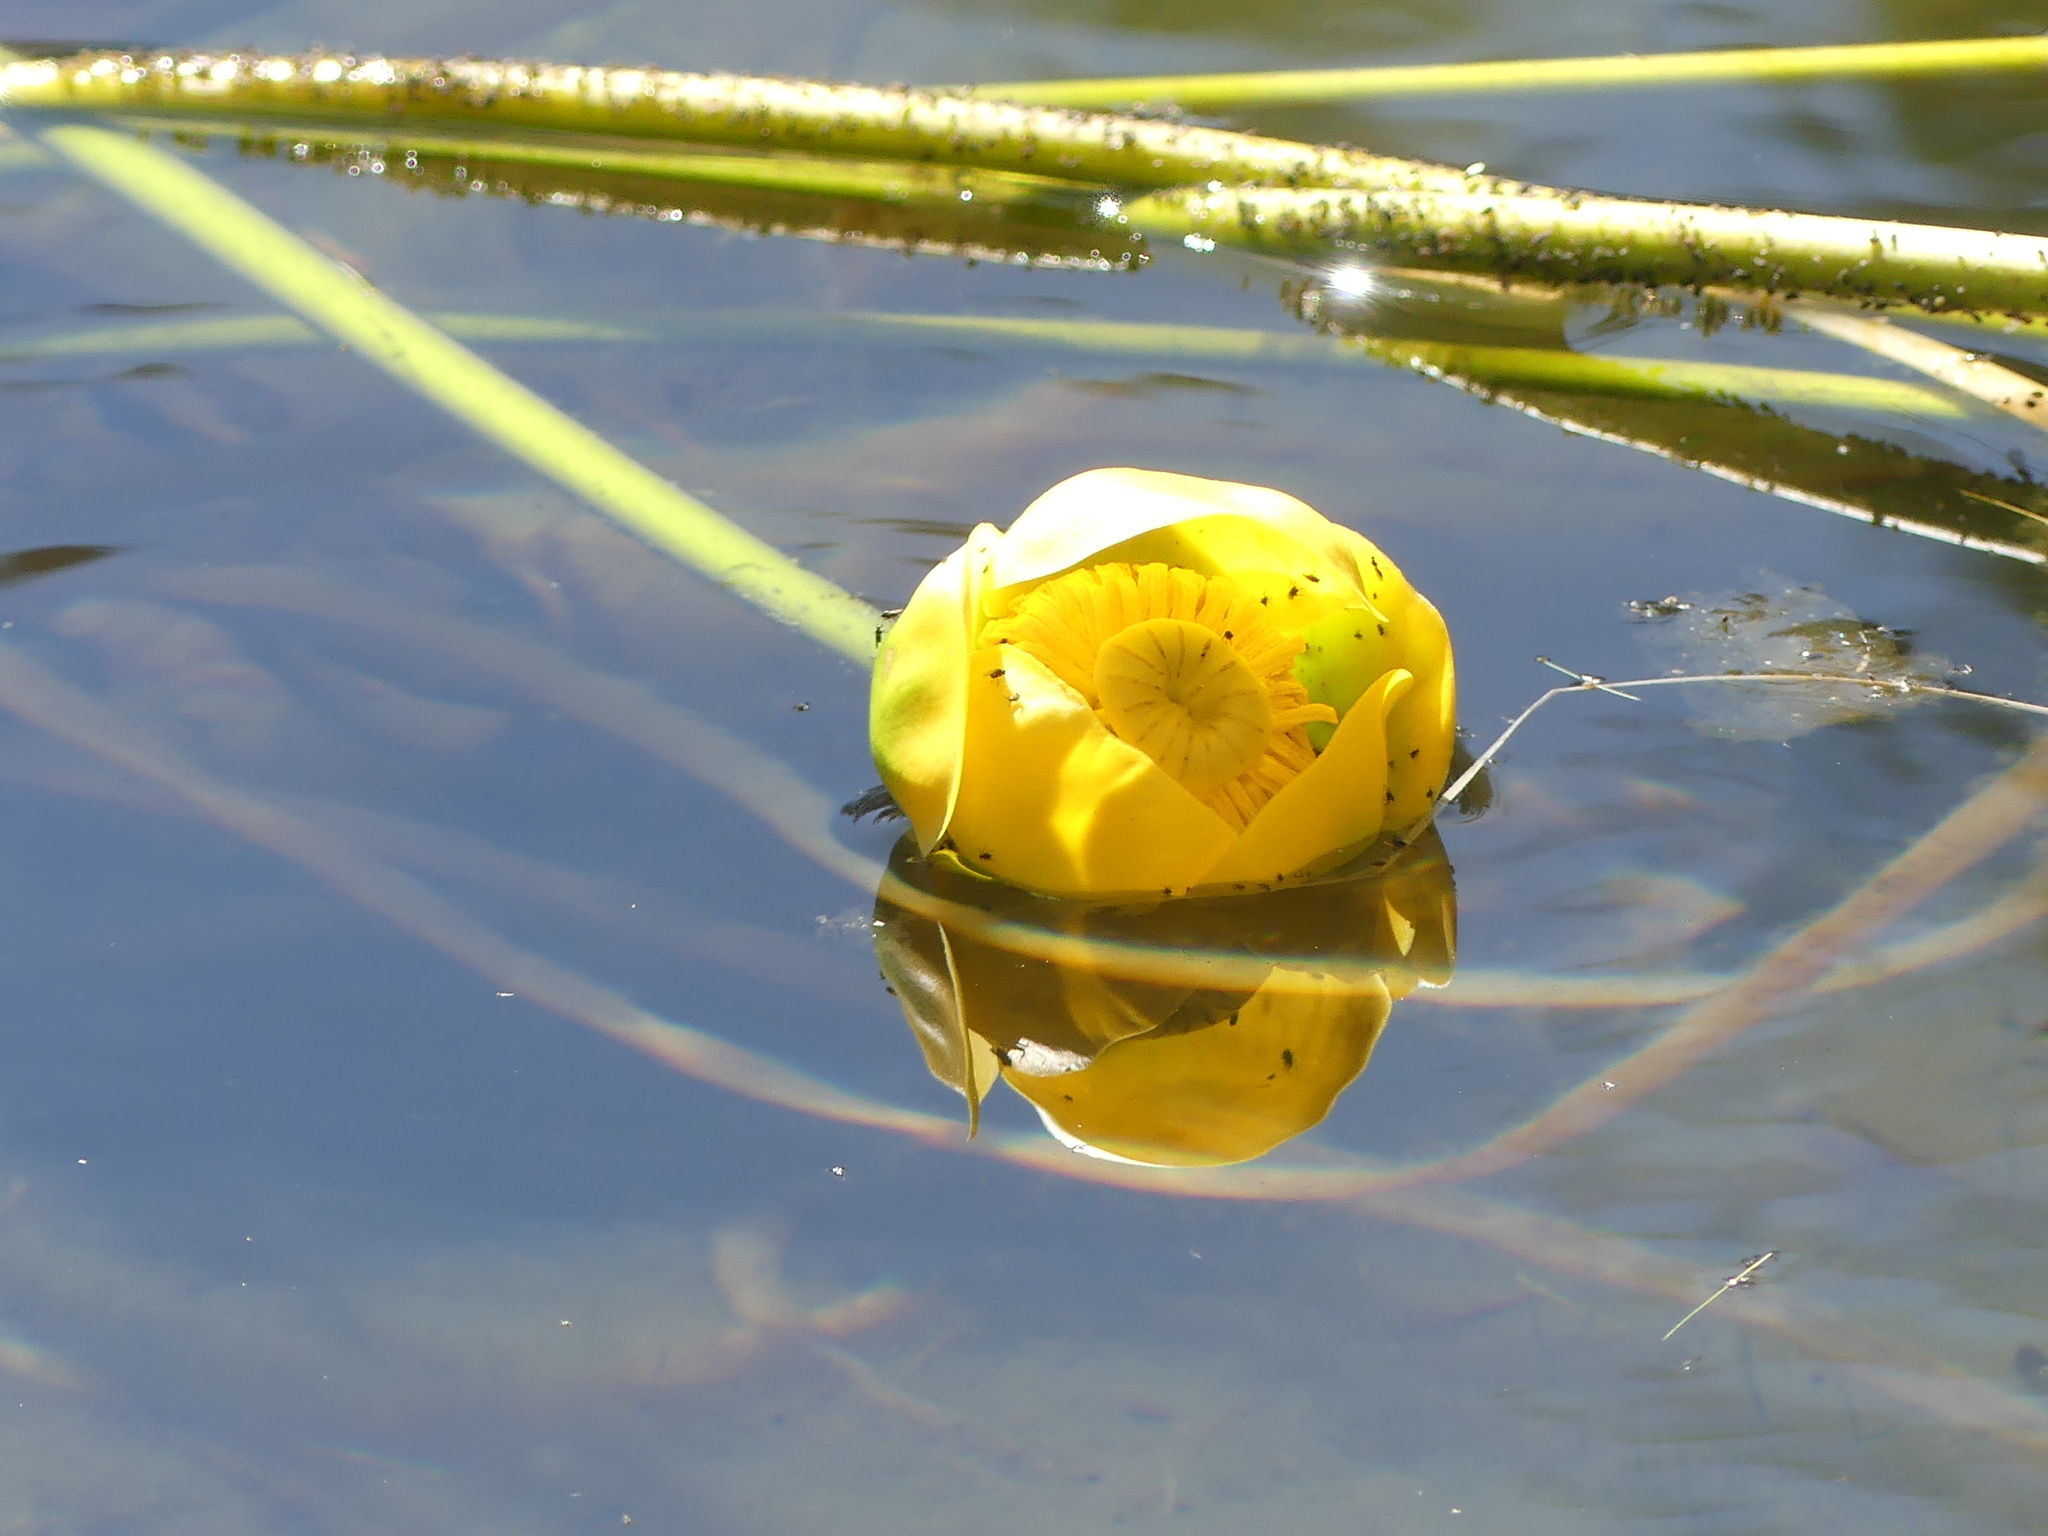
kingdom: Plantae
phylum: Tracheophyta
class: Magnoliopsida
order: Nymphaeales
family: Nymphaeaceae
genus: Nuphar
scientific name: Nuphar polysepala
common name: Rocky mountain cow-lily
